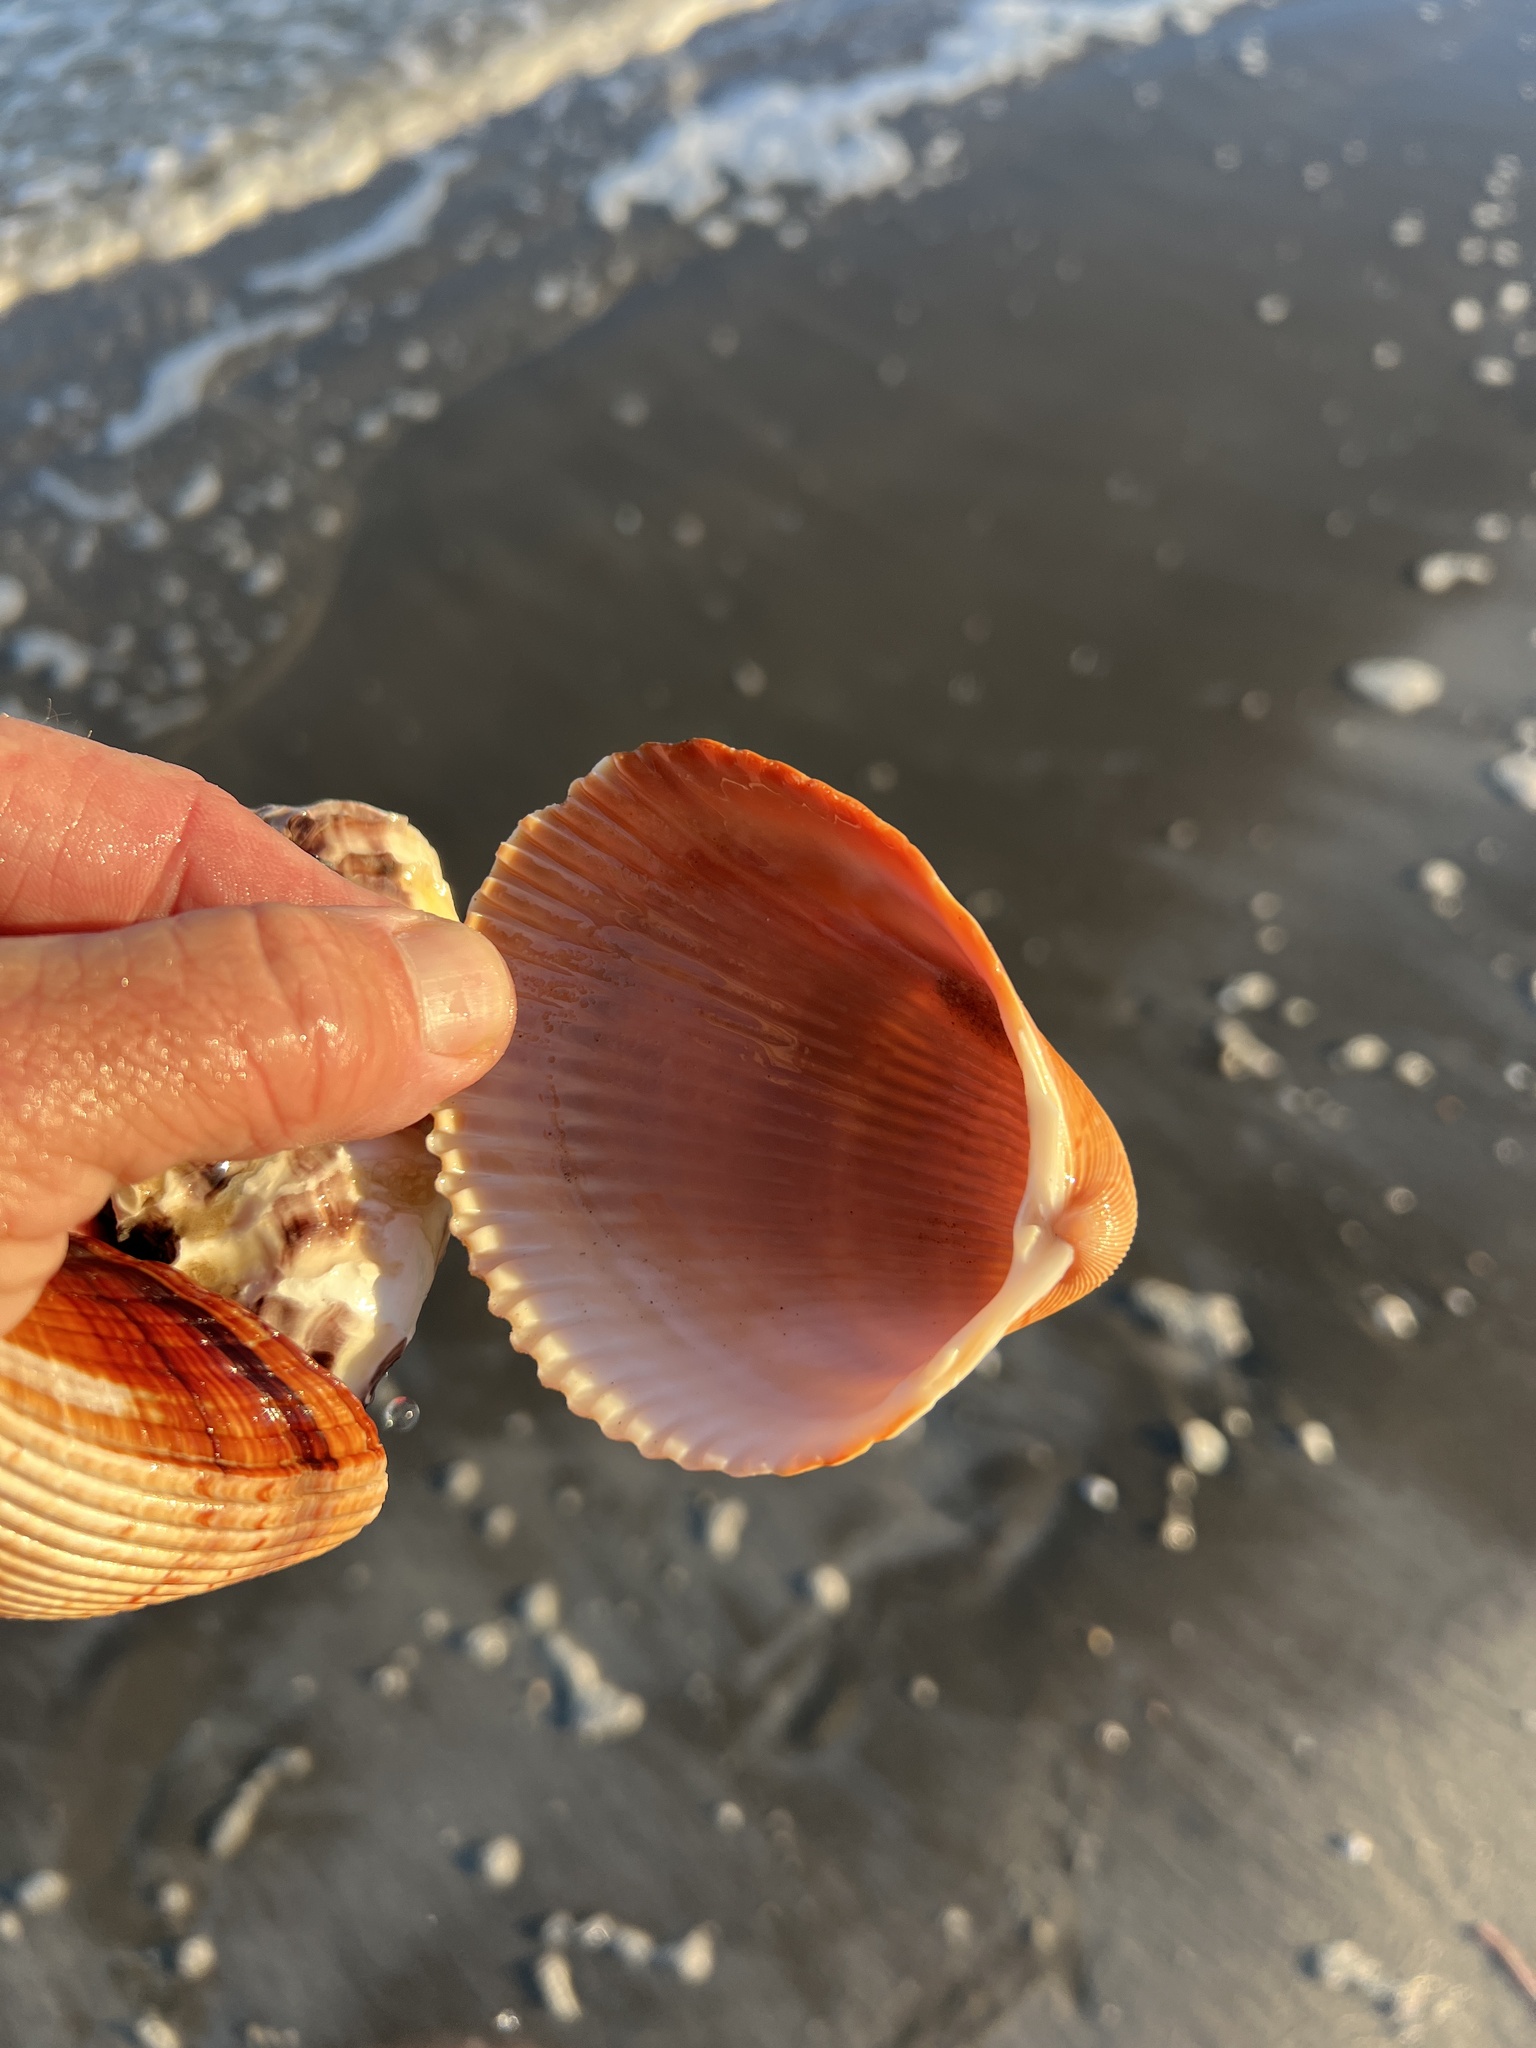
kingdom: Animalia
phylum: Mollusca
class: Bivalvia
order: Cardiida
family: Cardiidae
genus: Dinocardium
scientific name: Dinocardium robustum
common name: Atlantic giant cockle
